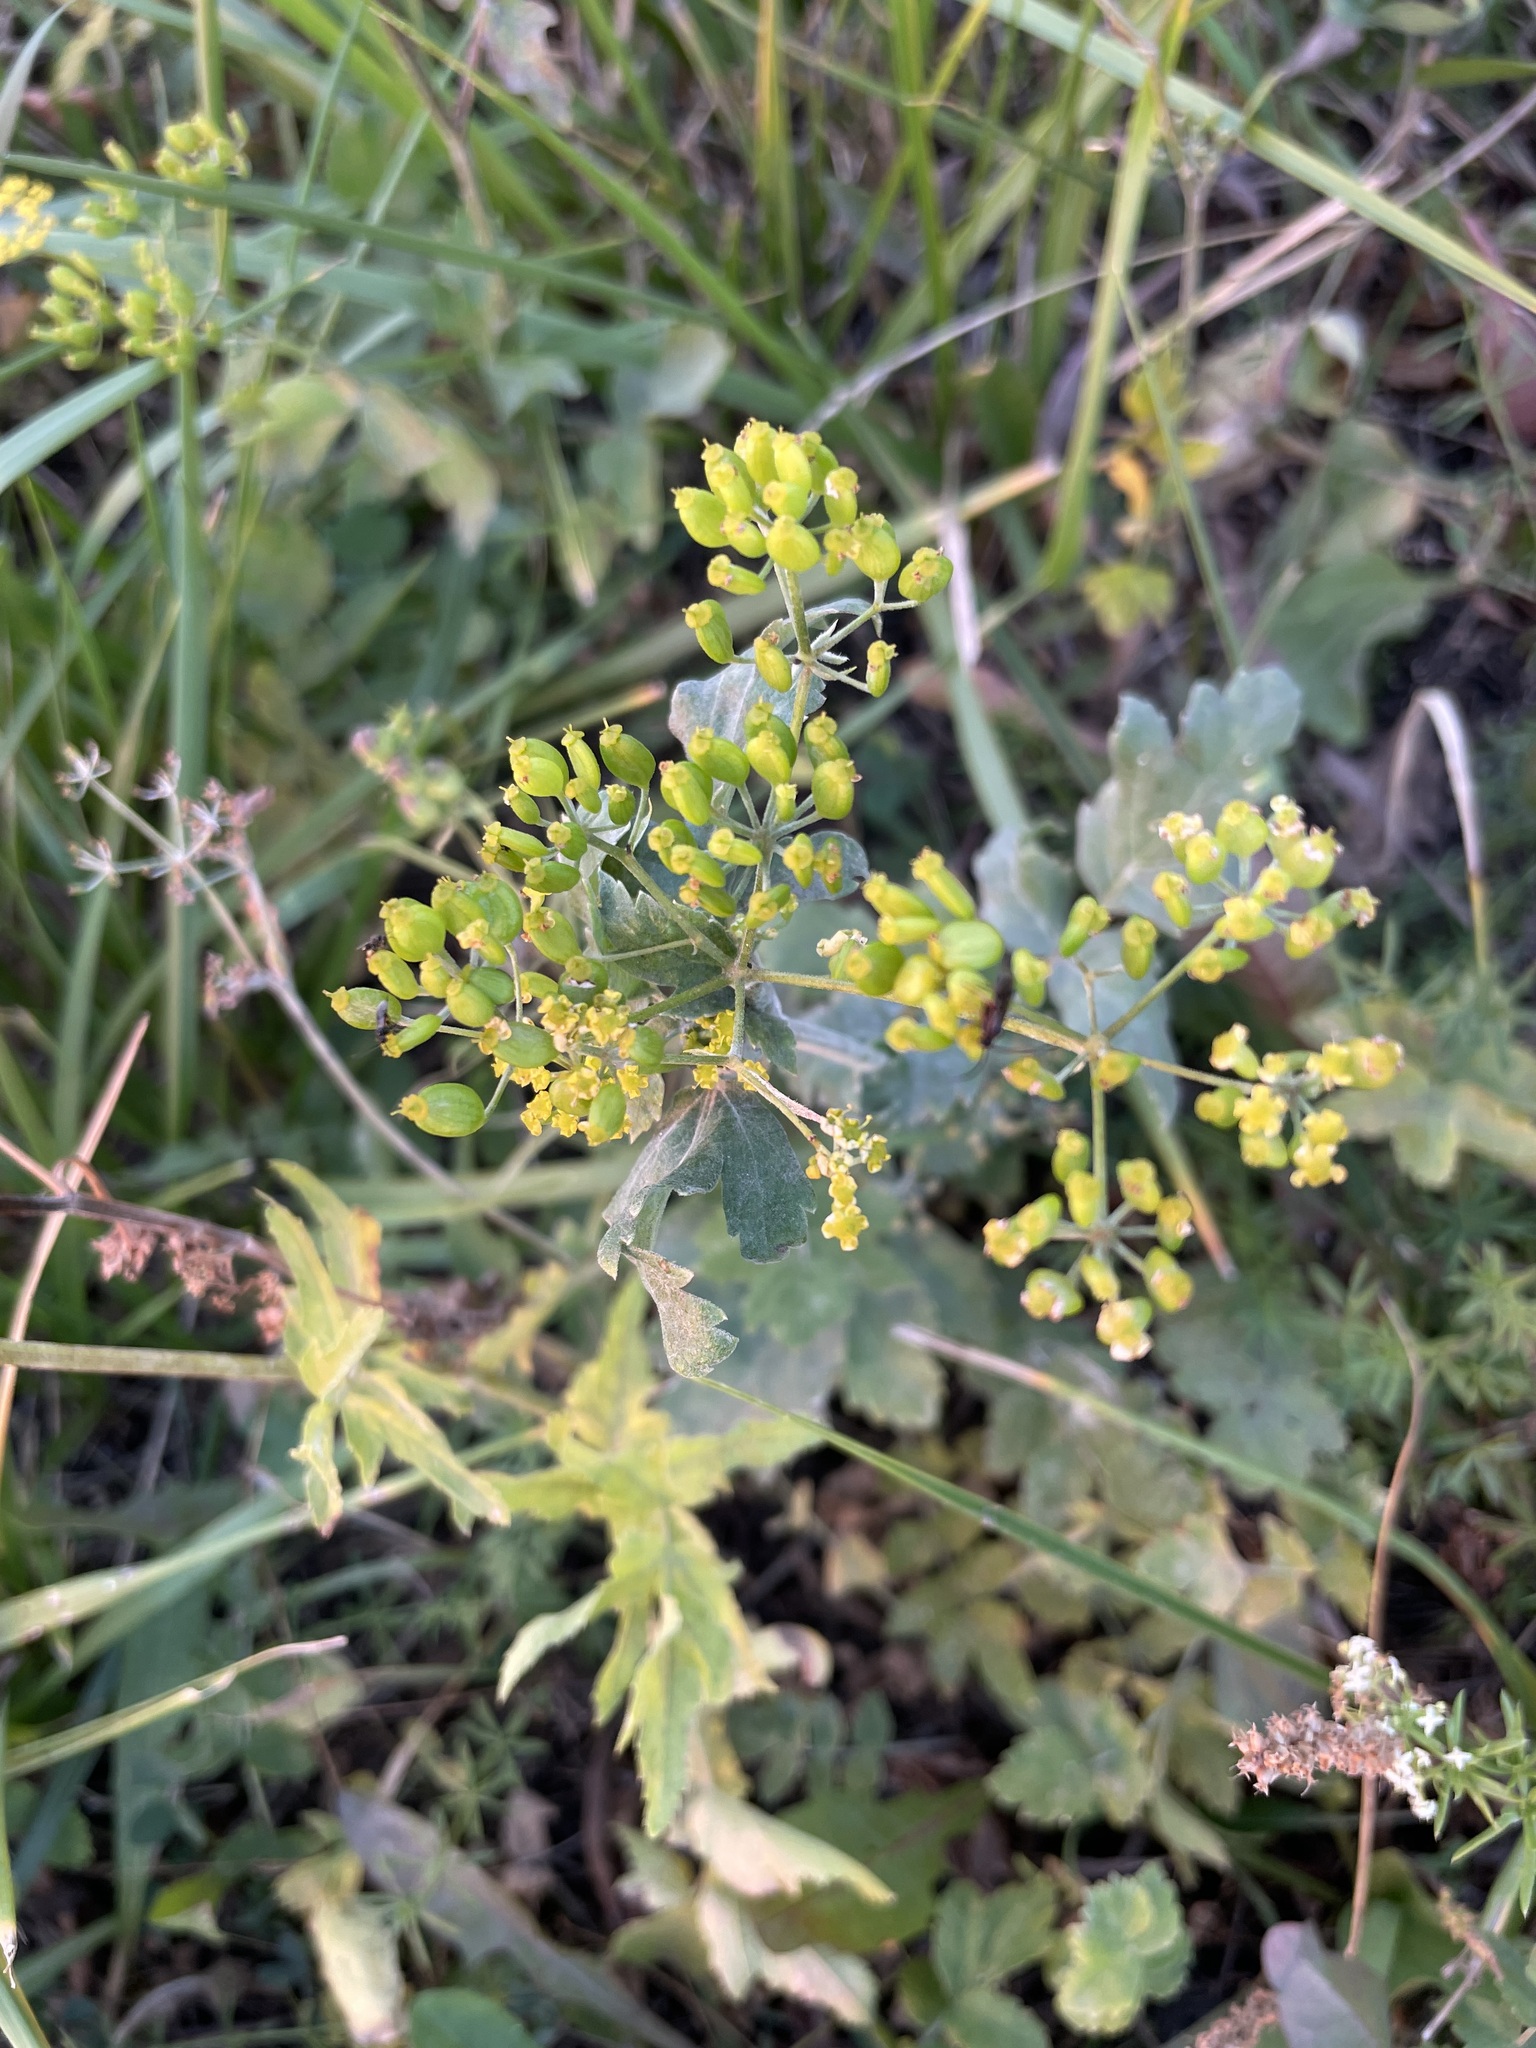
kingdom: Plantae
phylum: Tracheophyta
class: Magnoliopsida
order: Apiales
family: Apiaceae
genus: Pastinaca
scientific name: Pastinaca sativa
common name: Wild parsnip
